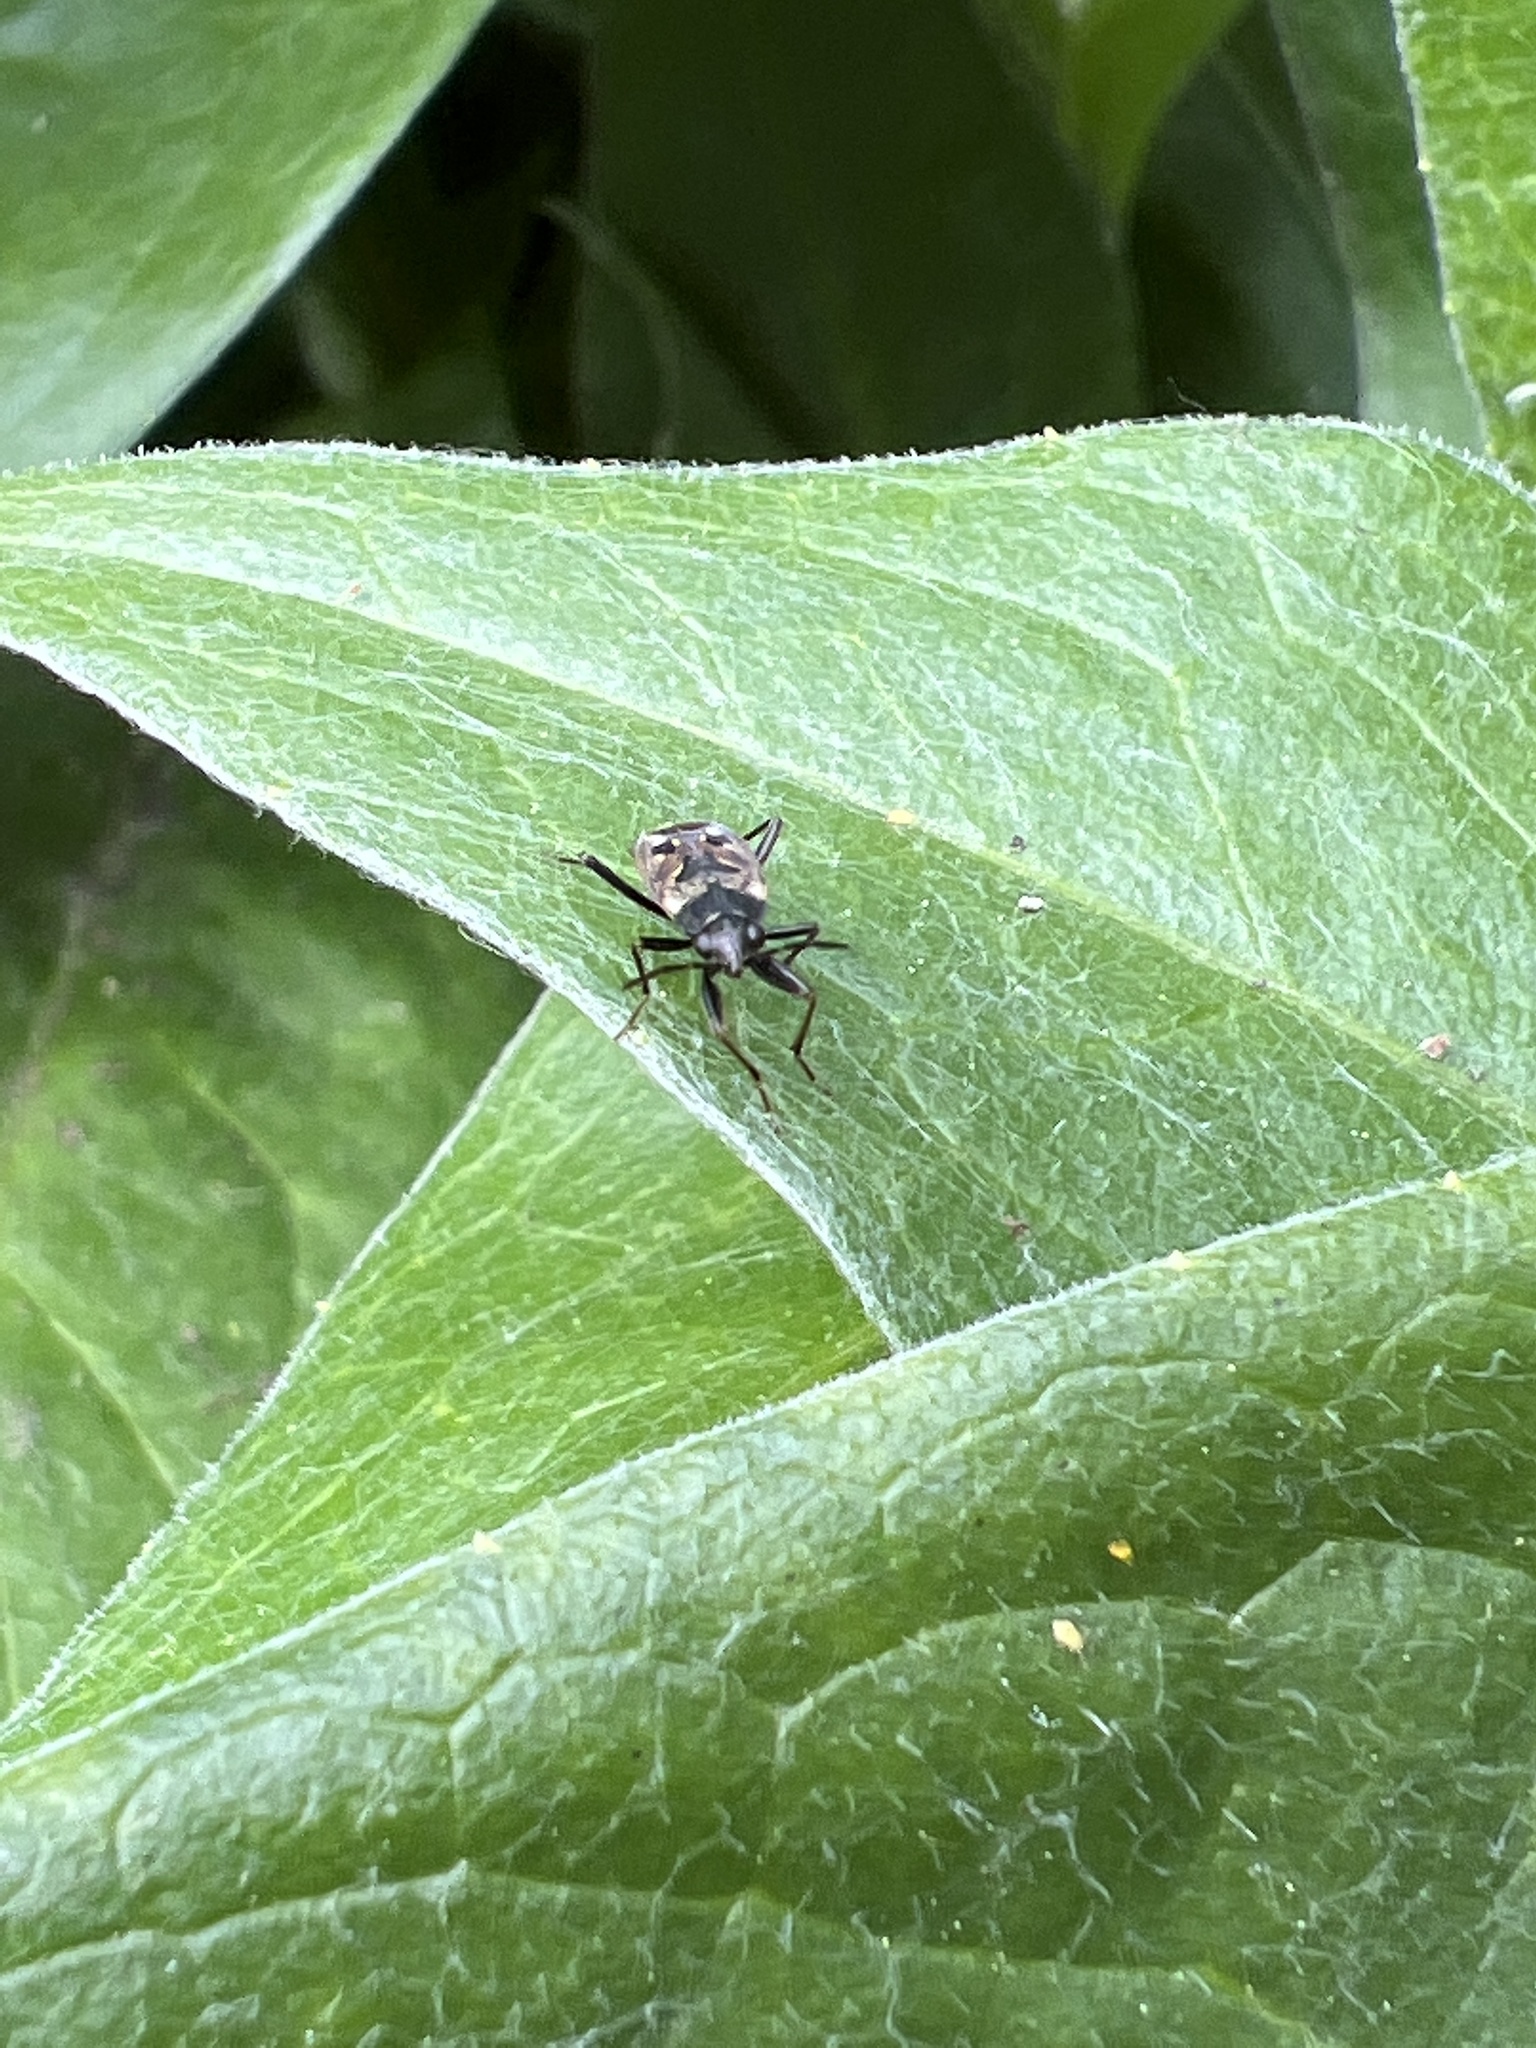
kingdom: Animalia
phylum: Arthropoda
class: Insecta
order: Hemiptera
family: Rhyparochromidae
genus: Rhyparochromus
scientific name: Rhyparochromus vulgaris
